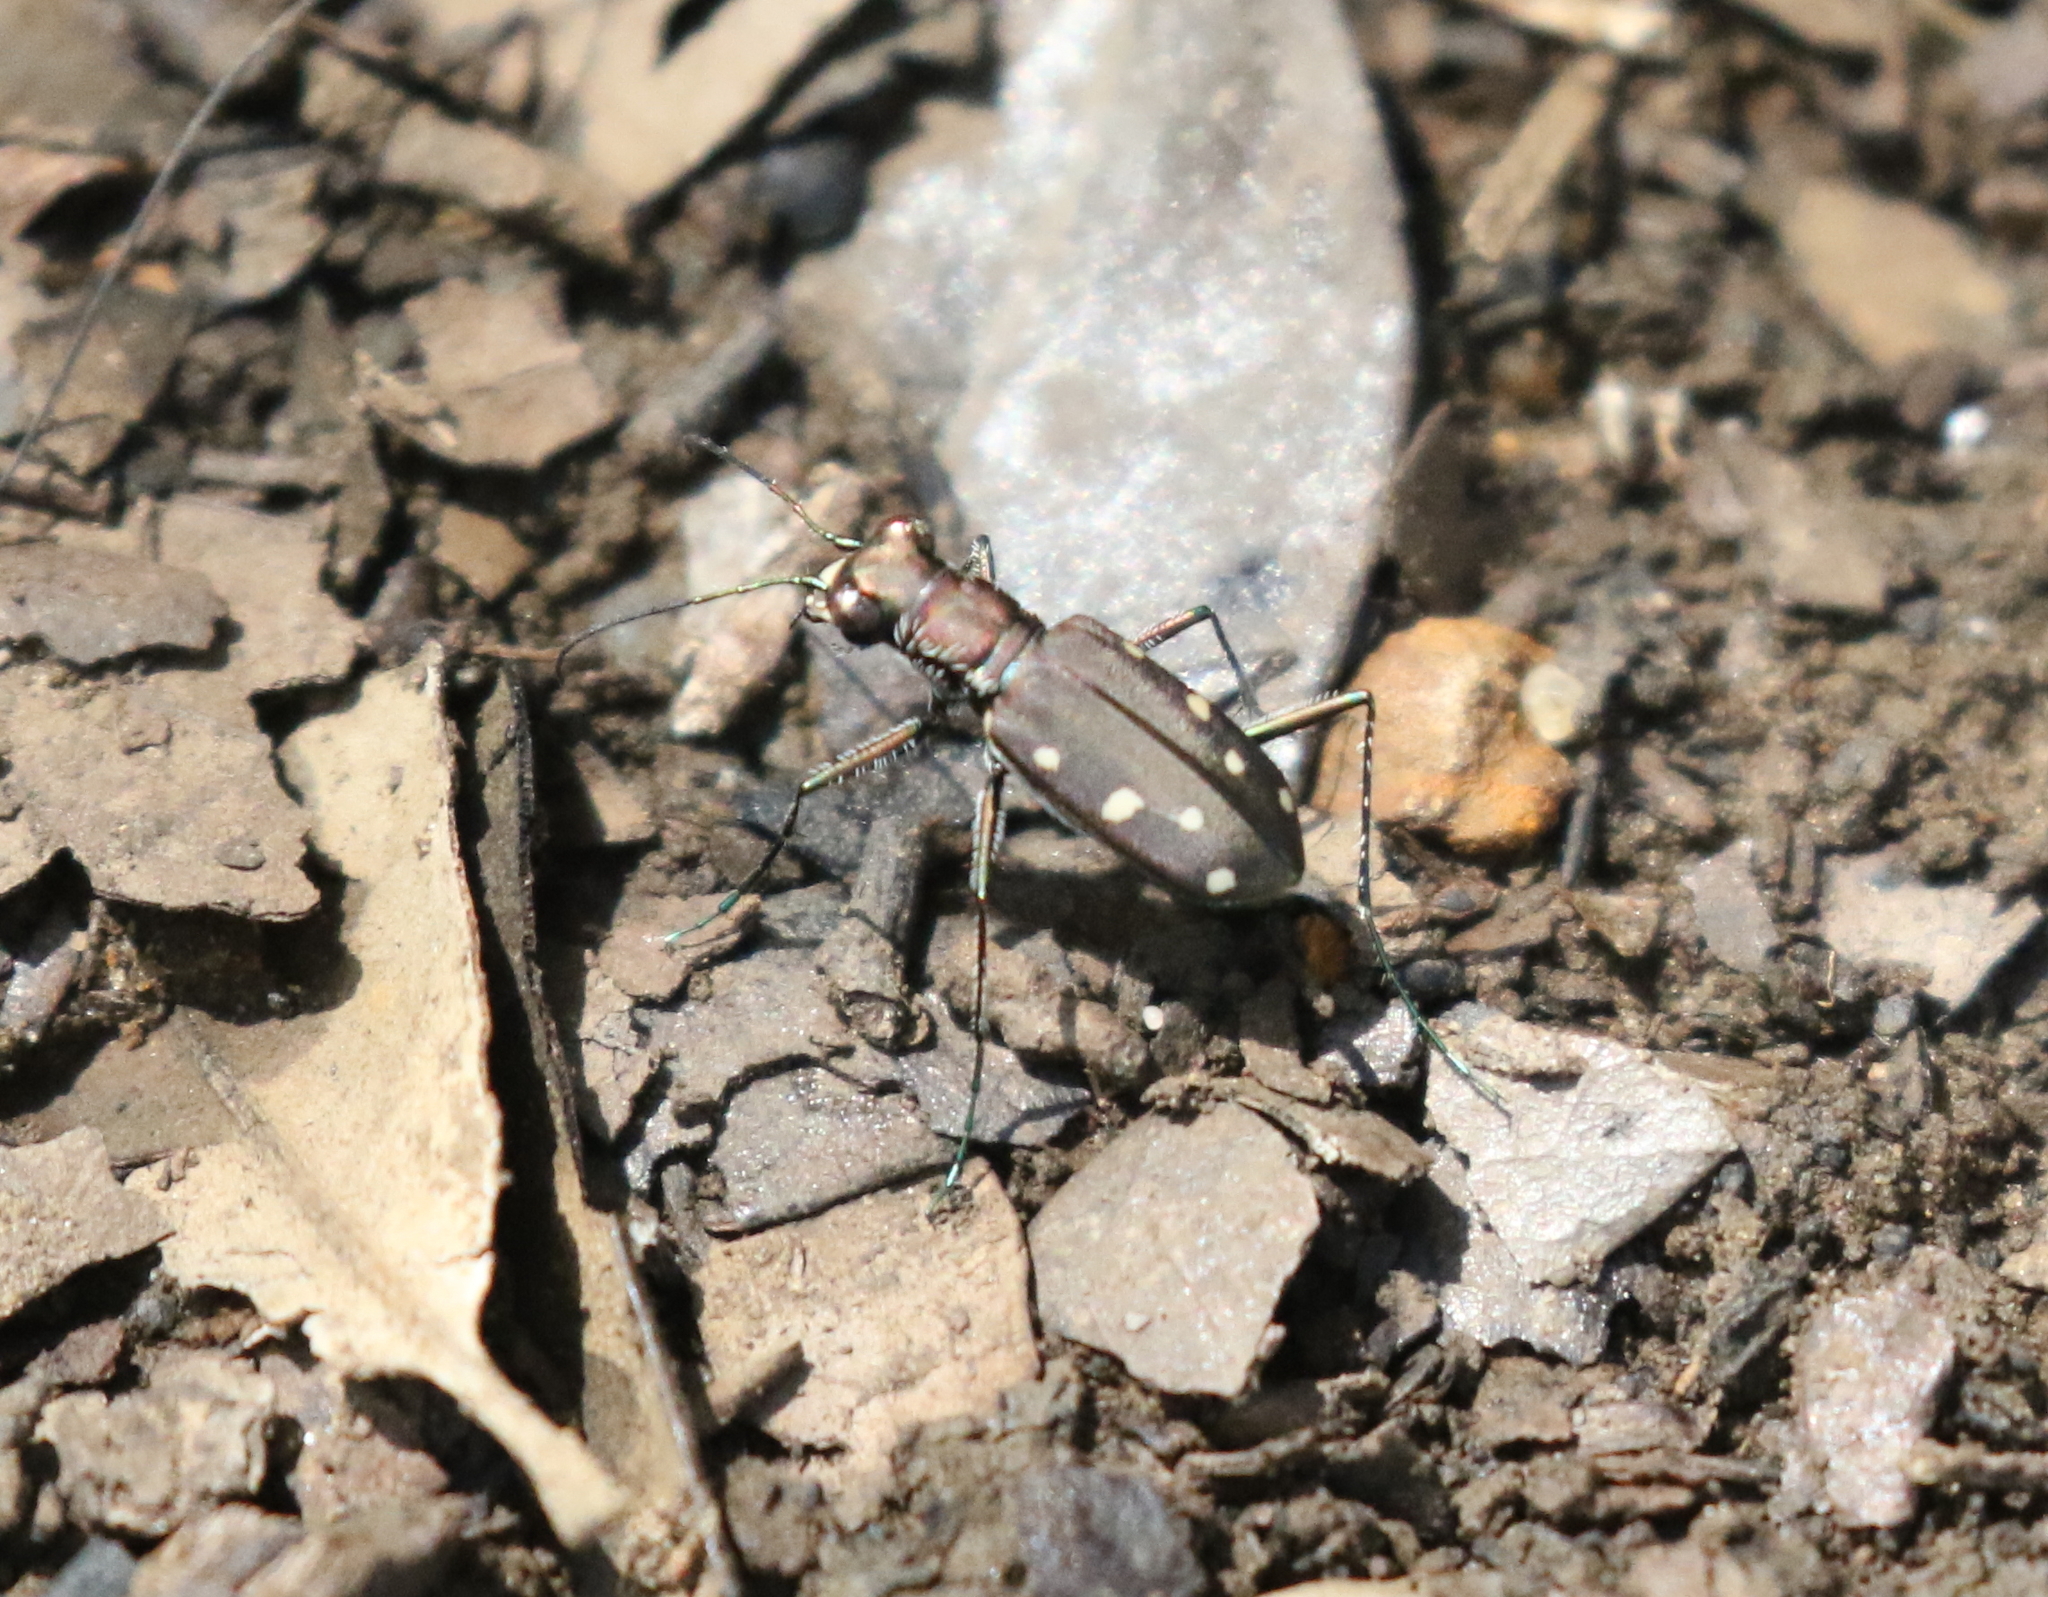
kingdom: Animalia
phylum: Arthropoda
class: Insecta
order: Coleoptera
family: Carabidae
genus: Cicindela
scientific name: Cicindela ocellata
